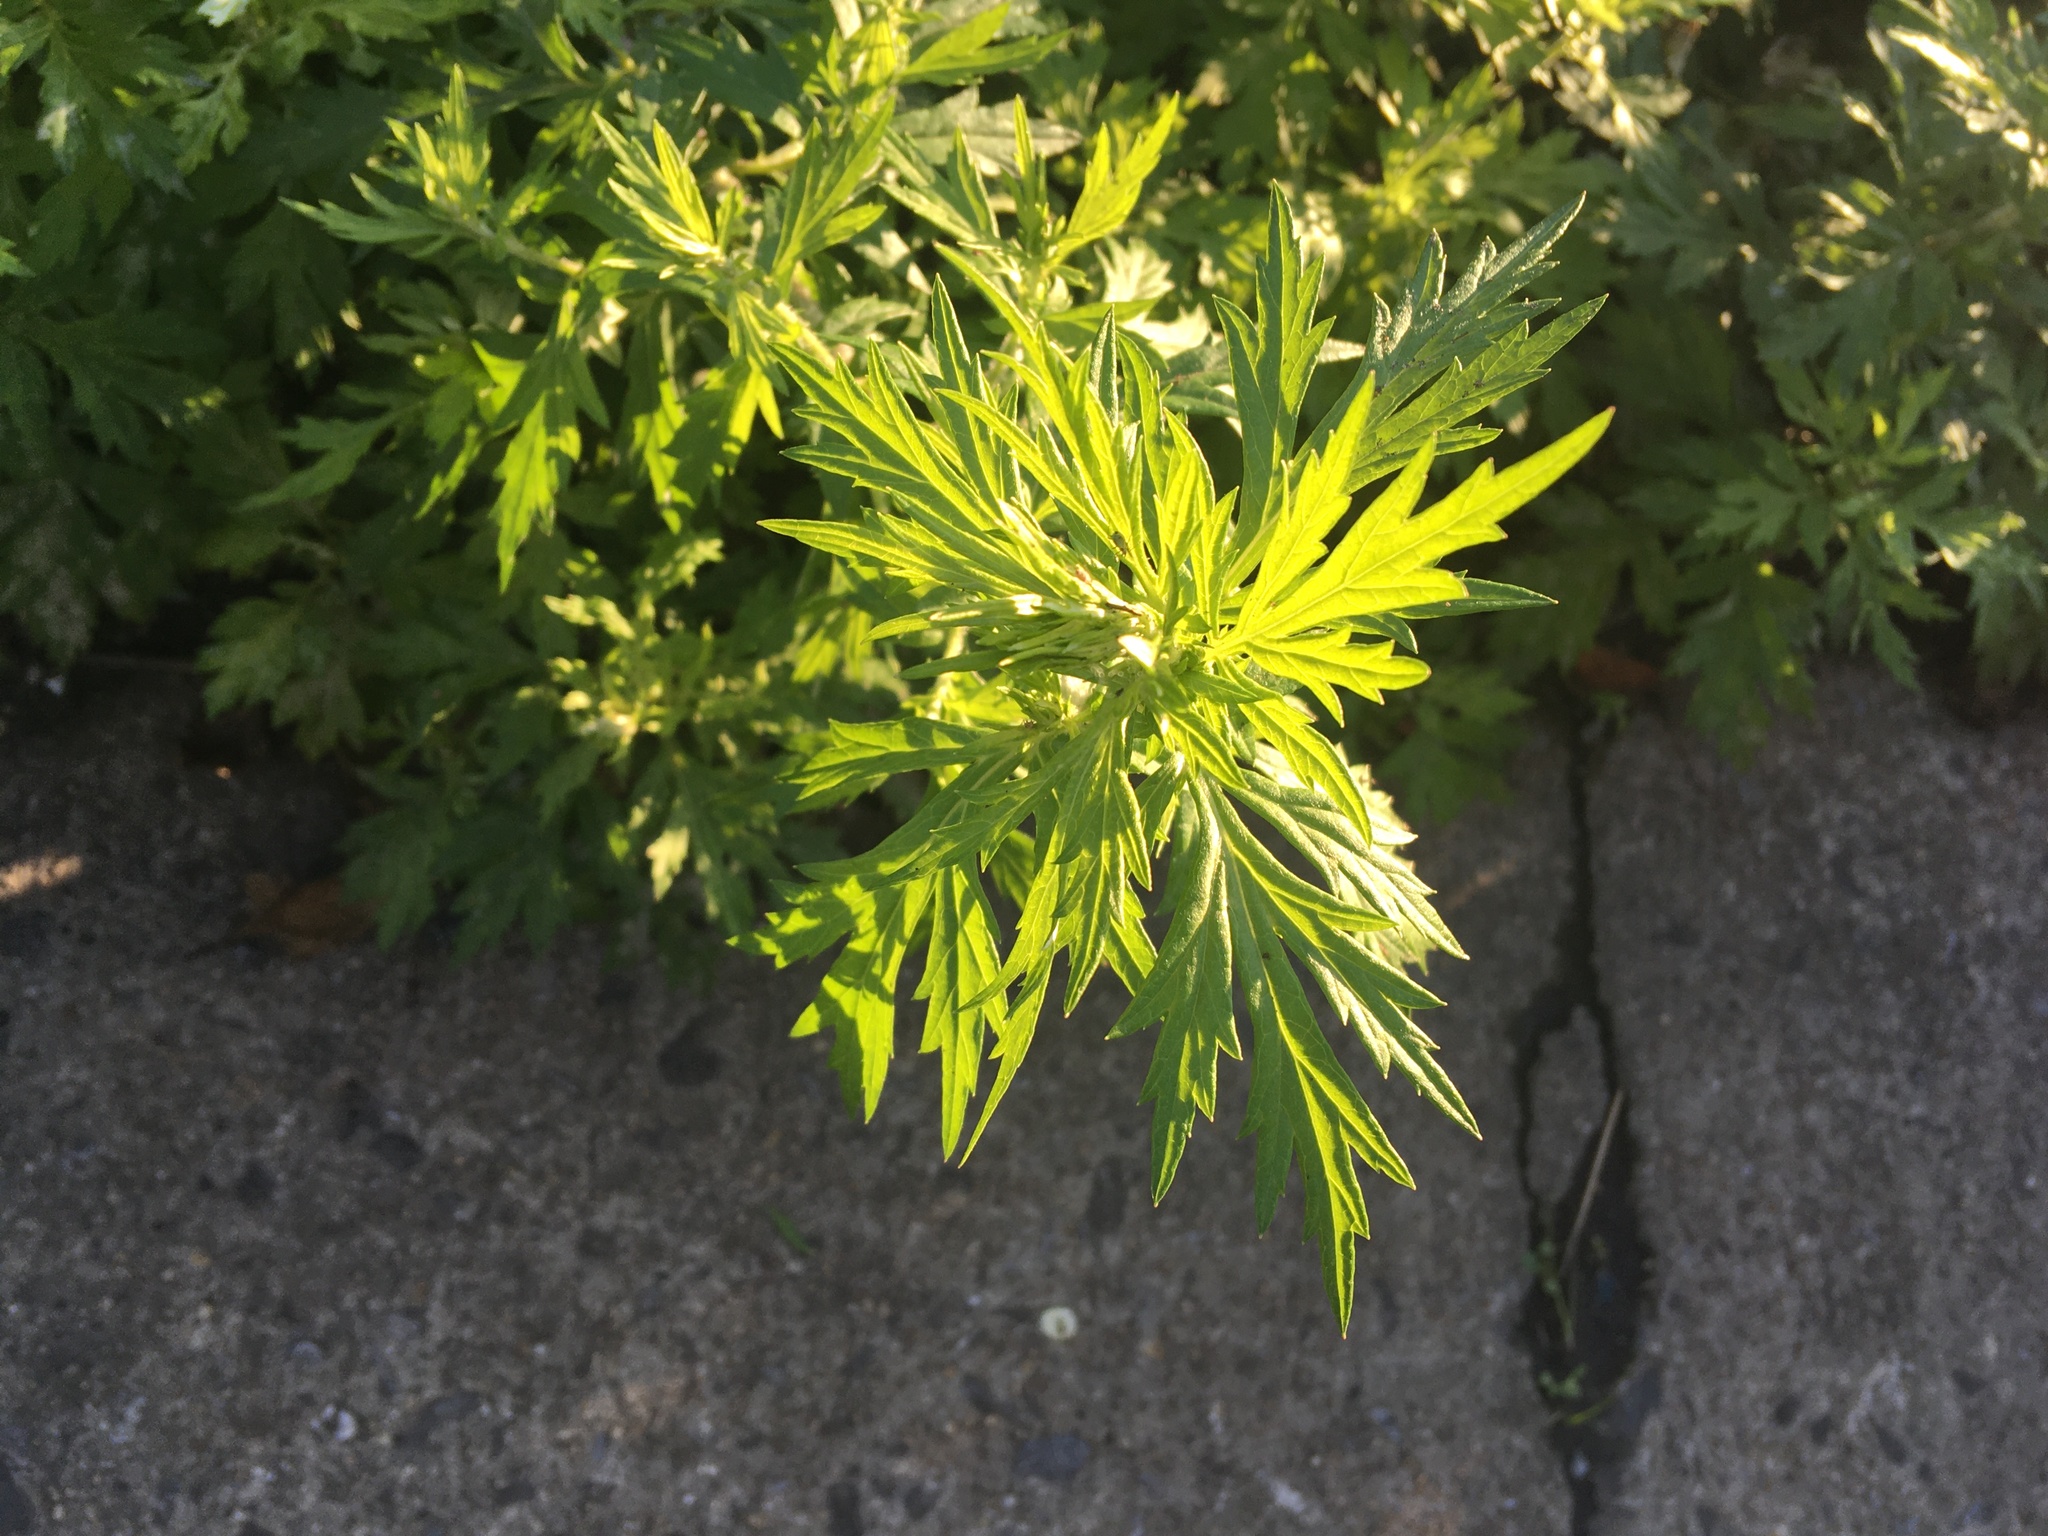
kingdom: Plantae
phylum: Tracheophyta
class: Magnoliopsida
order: Asterales
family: Asteraceae
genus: Artemisia
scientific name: Artemisia vulgaris
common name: Mugwort
